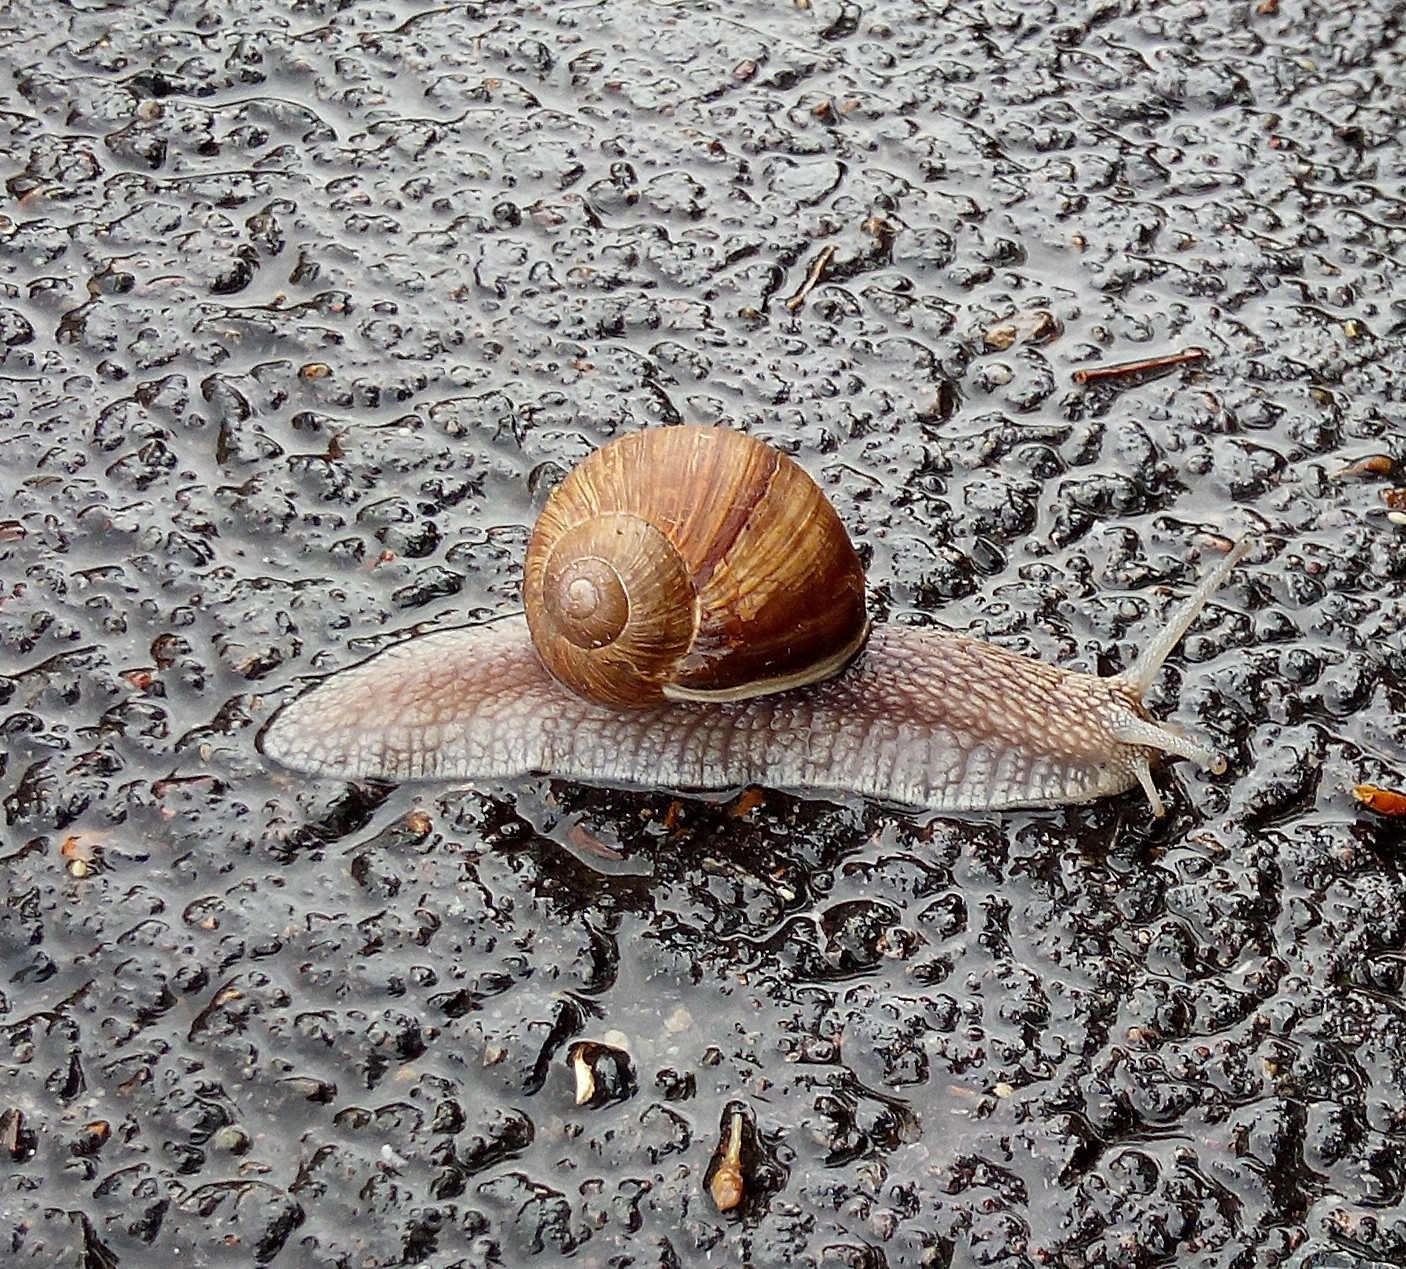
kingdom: Animalia
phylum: Mollusca
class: Gastropoda
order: Stylommatophora
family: Helicidae
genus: Helix
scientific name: Helix pomatia
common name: Roman snail
